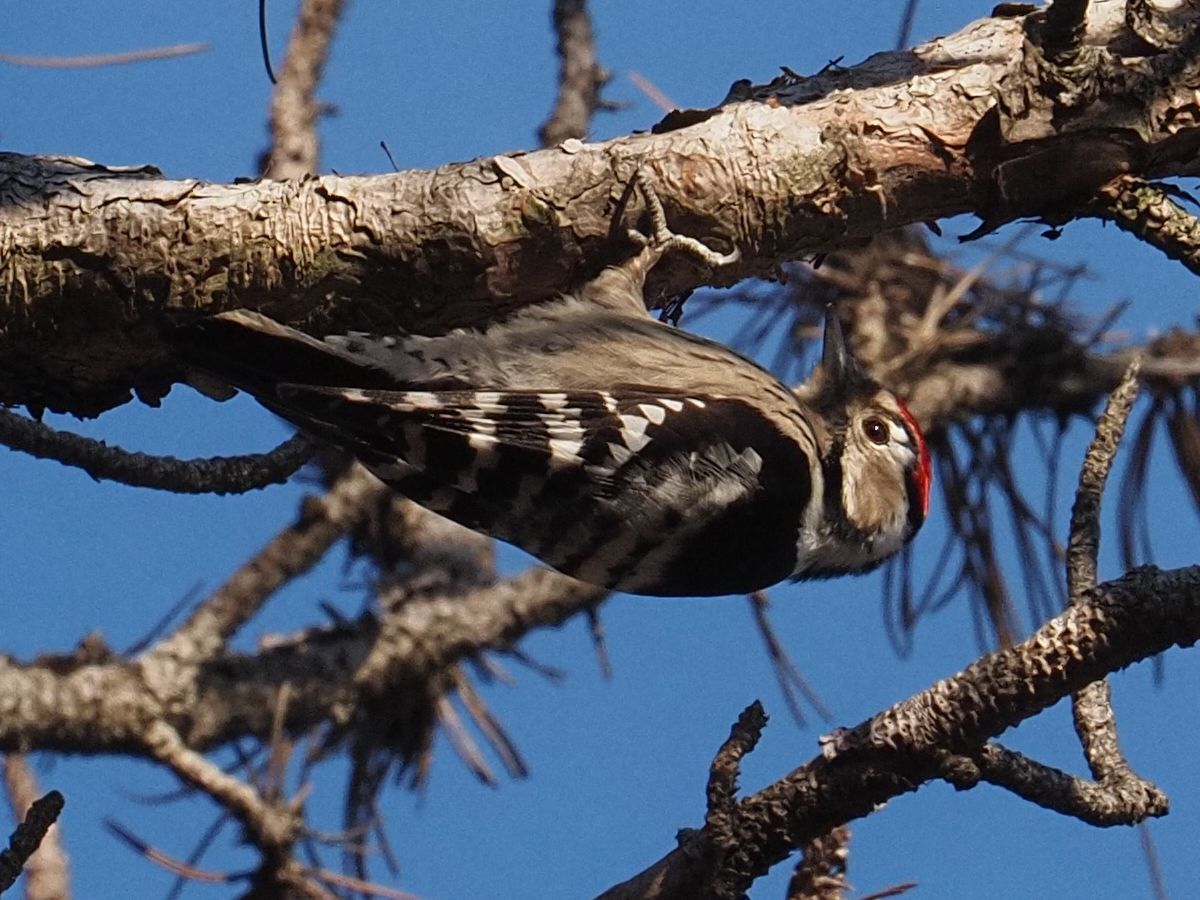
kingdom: Animalia
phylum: Chordata
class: Aves
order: Piciformes
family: Picidae
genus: Dryobates
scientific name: Dryobates minor
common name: Lesser spotted woodpecker
